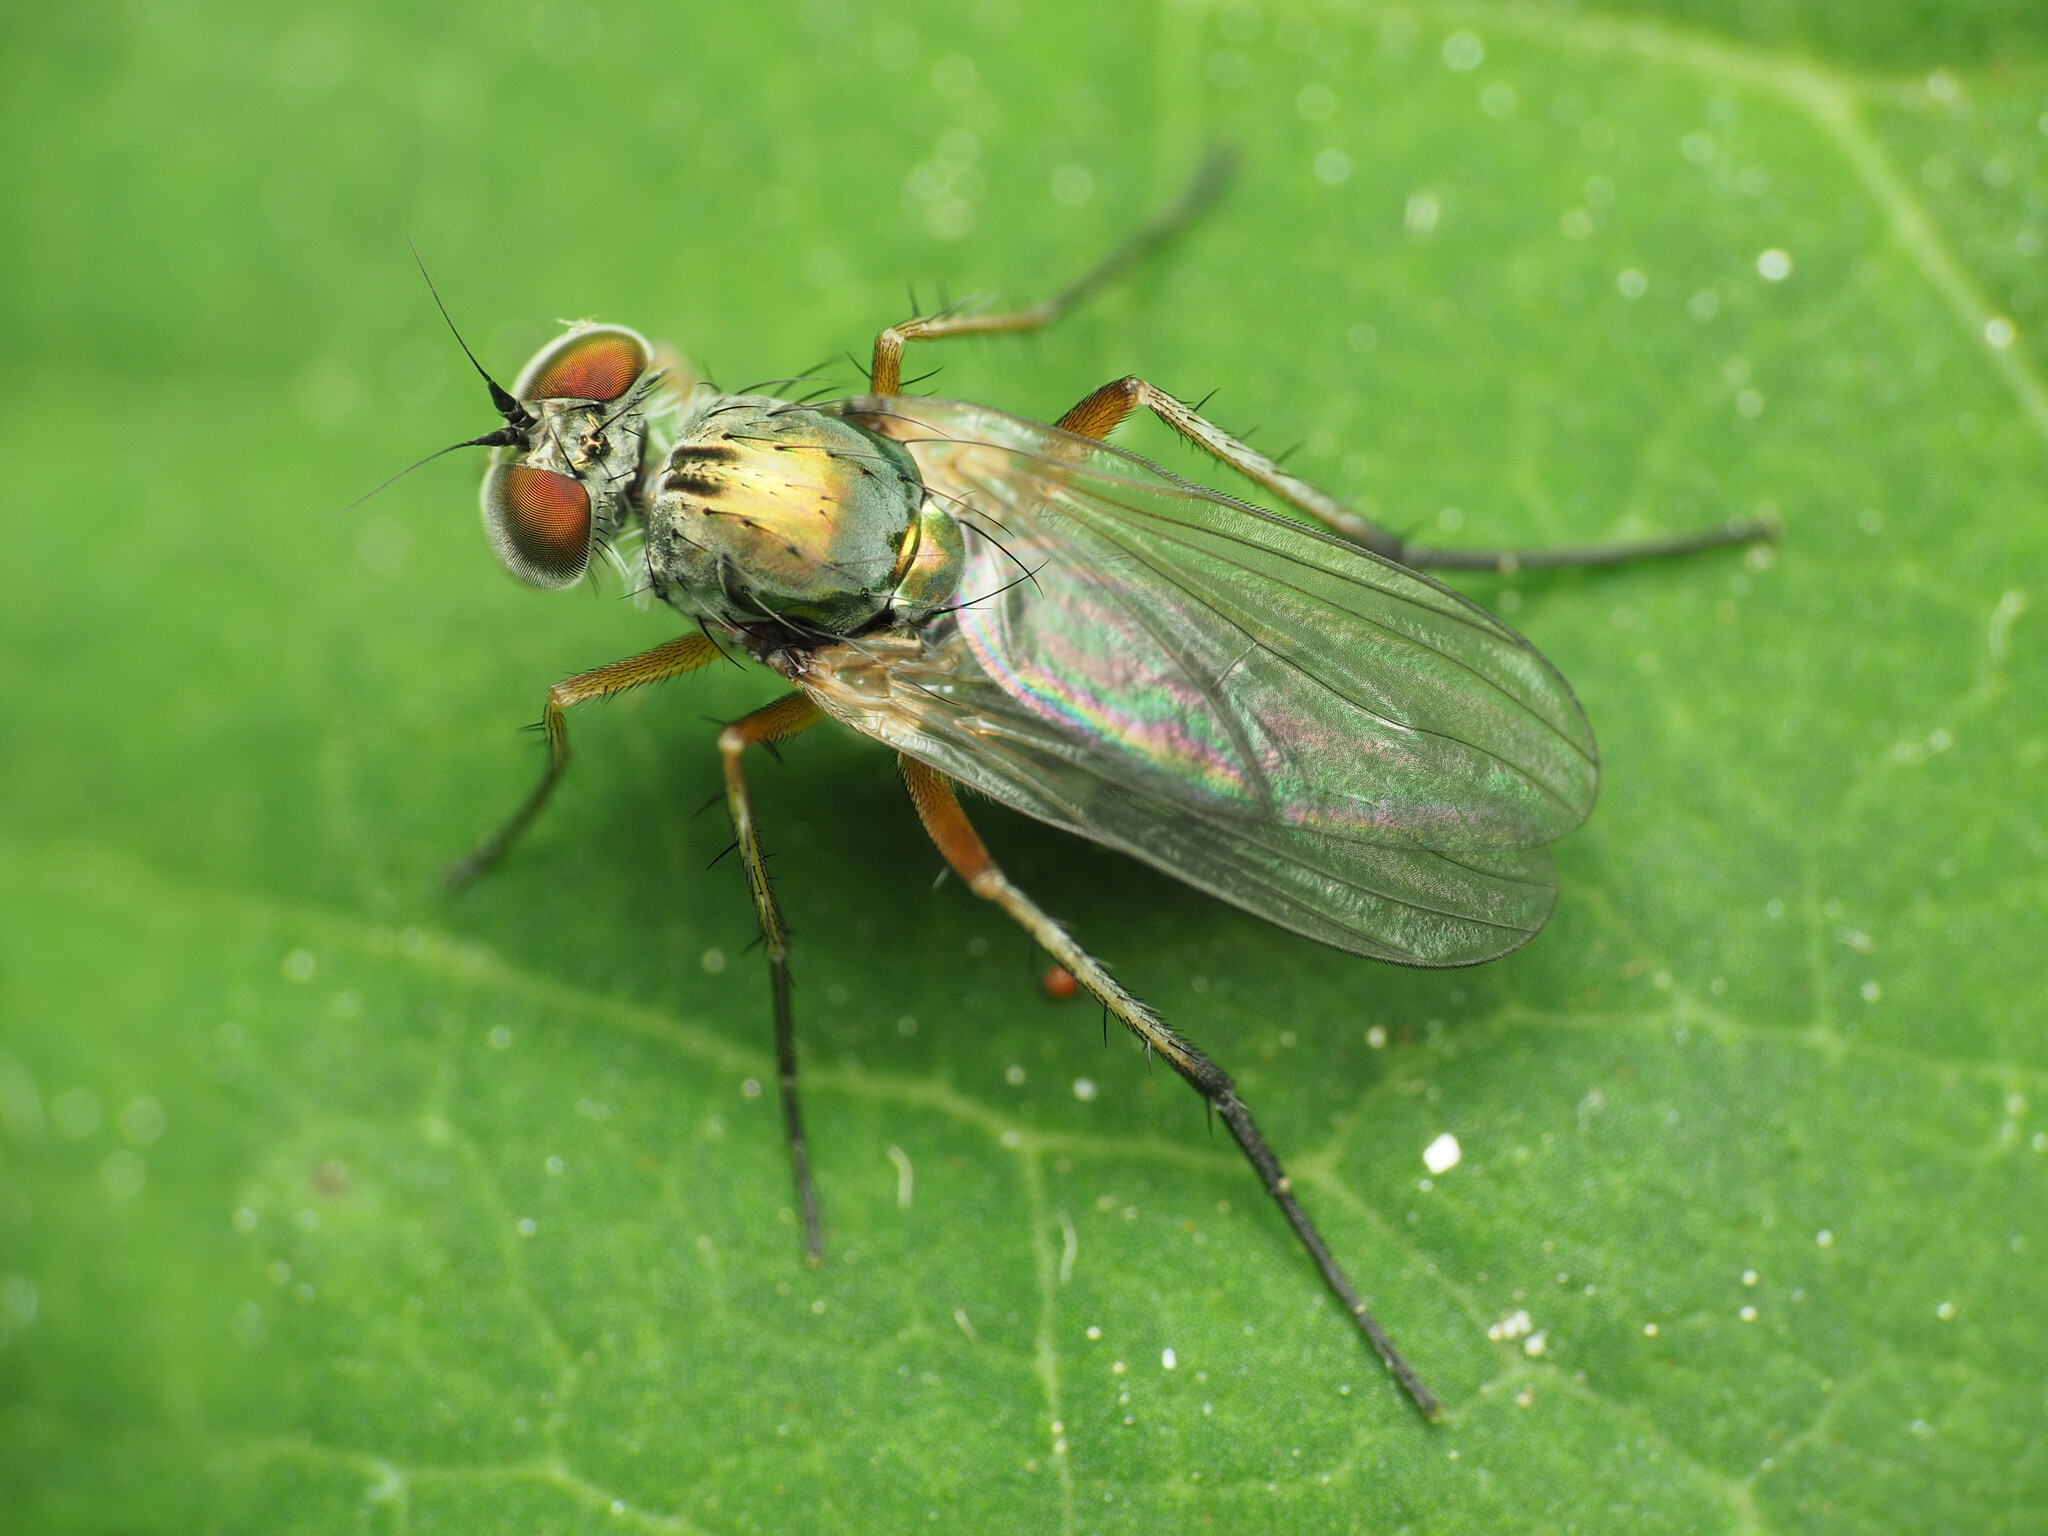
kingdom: Animalia
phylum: Arthropoda
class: Insecta
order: Diptera
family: Dolichopodidae
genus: Rhaphium
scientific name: Rhaphium rotundiceps
